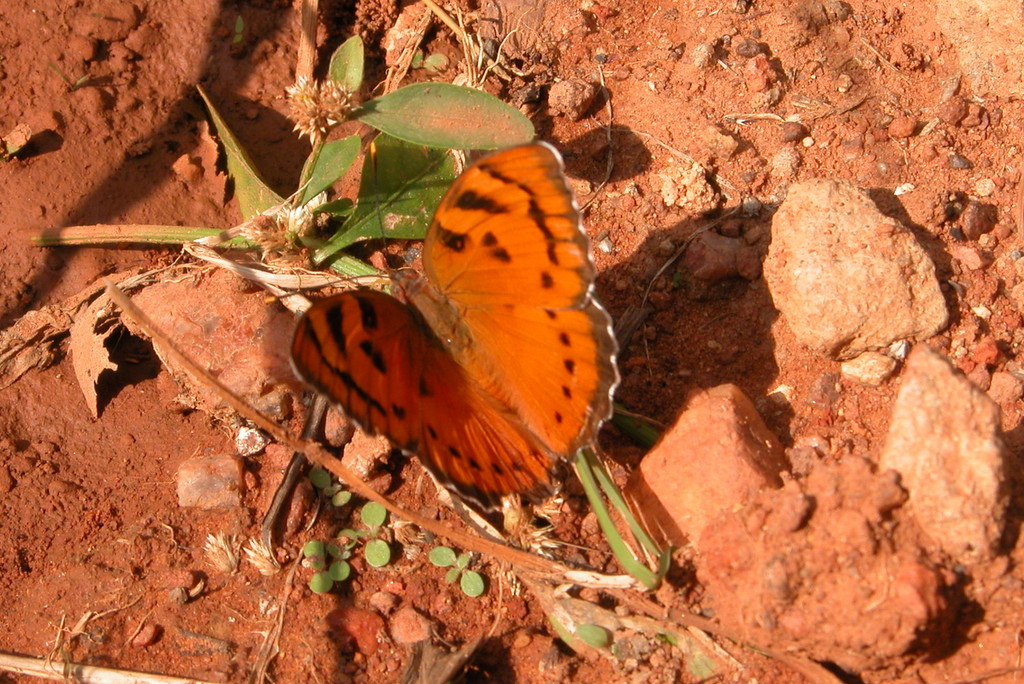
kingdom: Animalia
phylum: Arthropoda
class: Insecta
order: Lepidoptera
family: Nymphalidae
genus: Euthalia
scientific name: Euthalia nais
